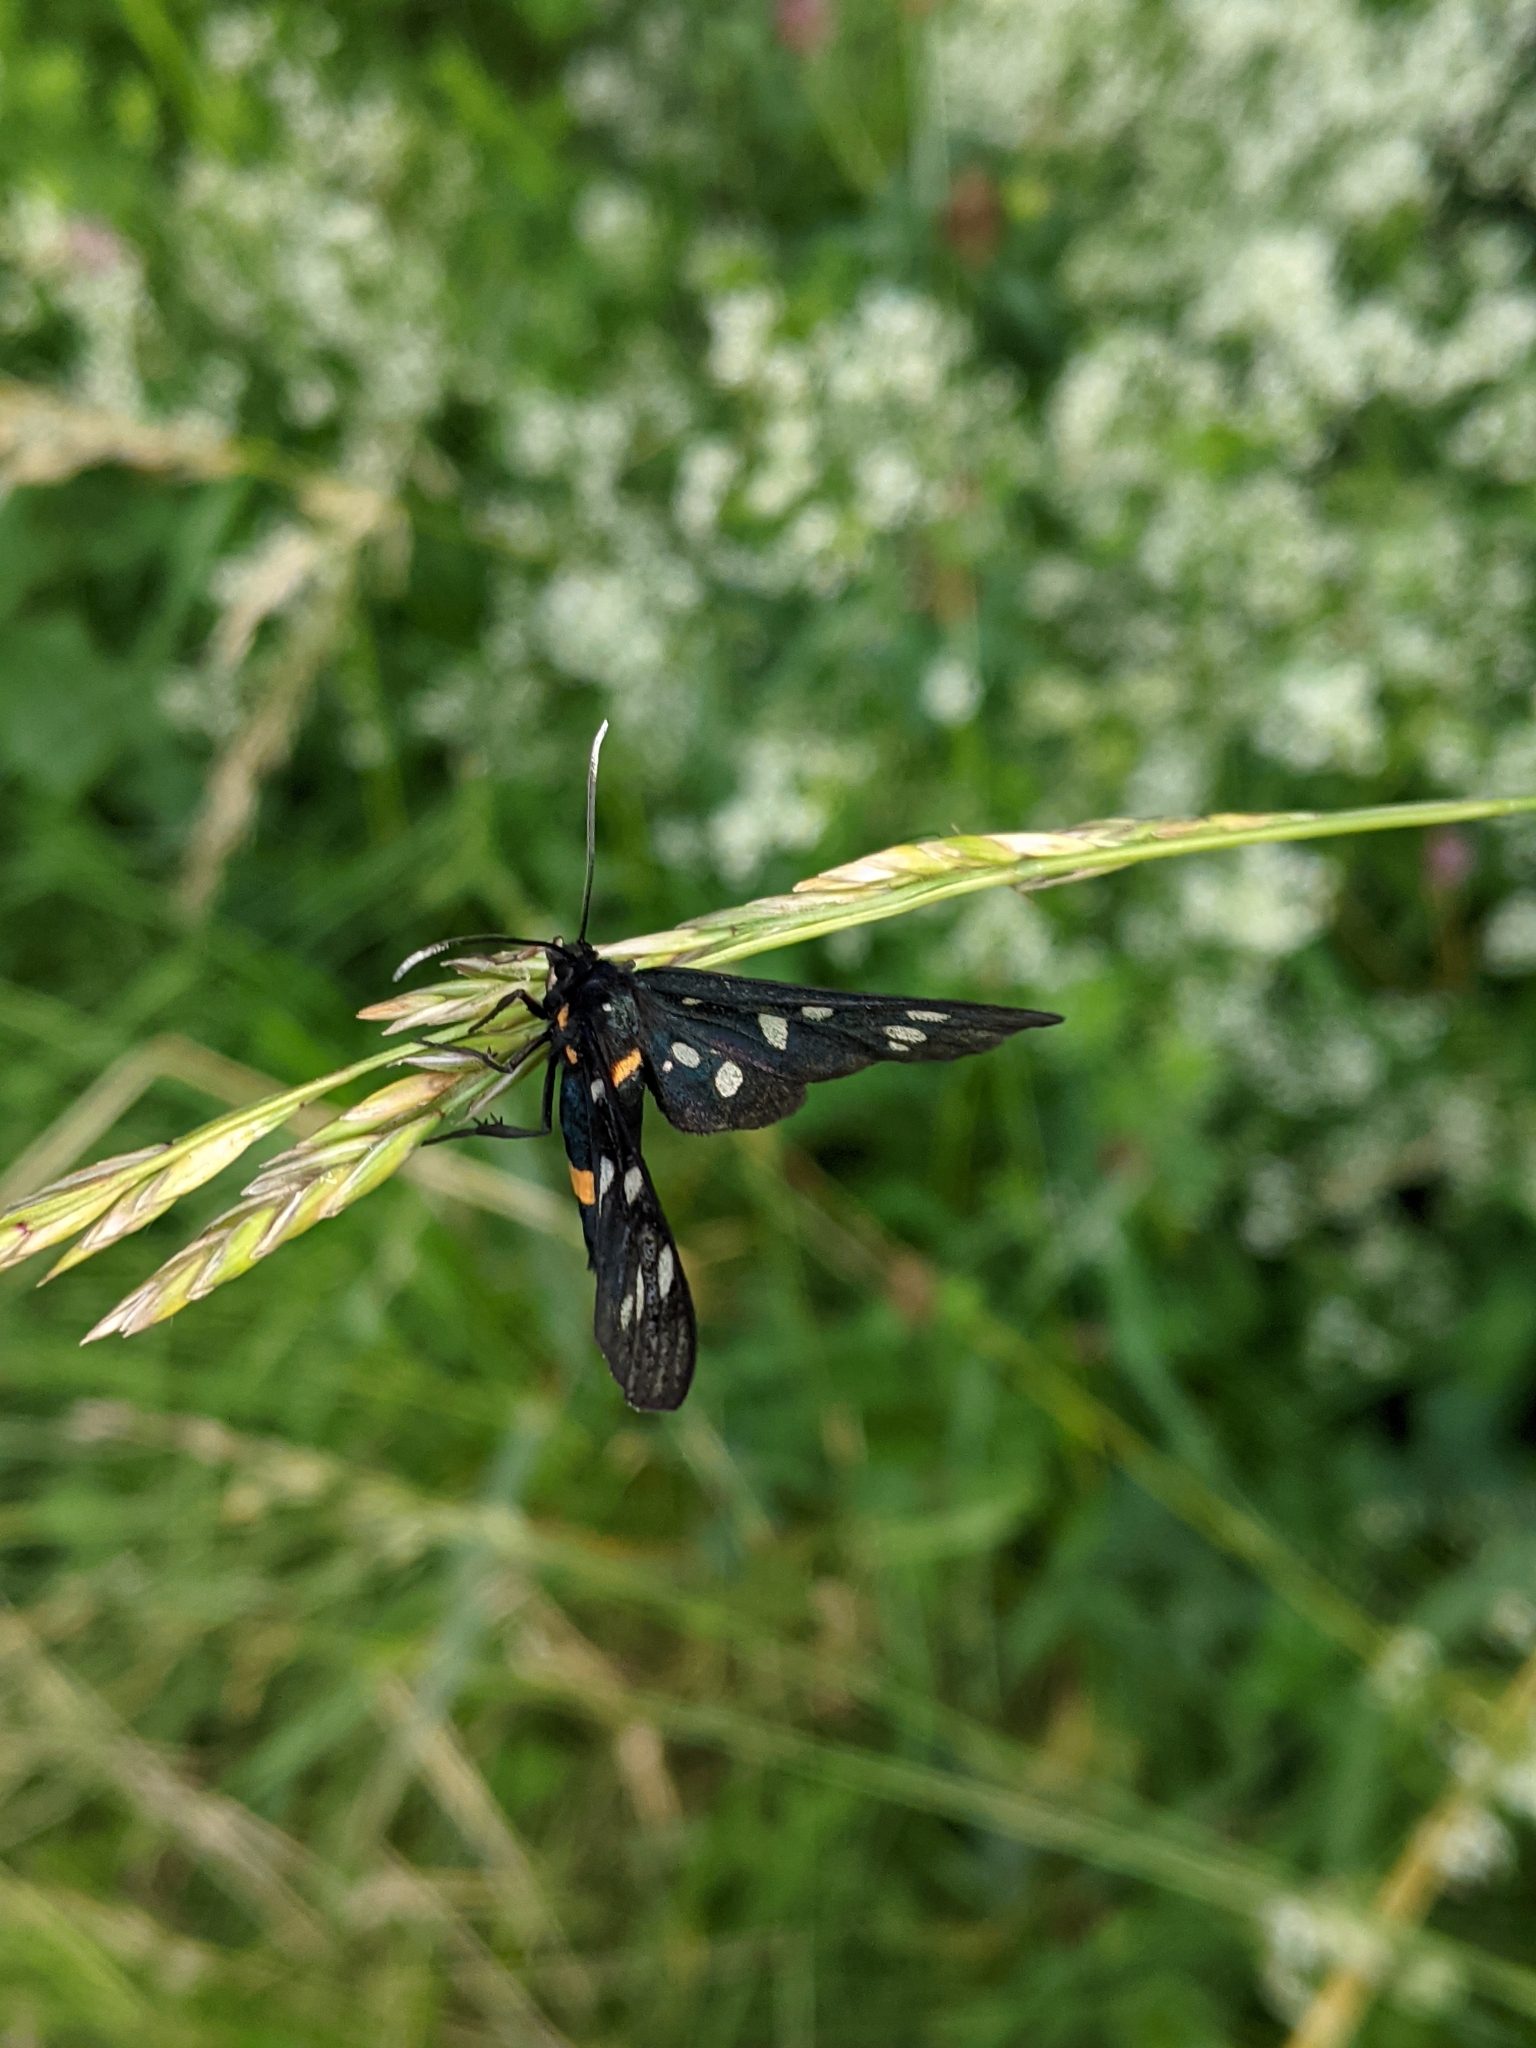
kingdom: Animalia
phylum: Arthropoda
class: Insecta
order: Lepidoptera
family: Erebidae
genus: Amata
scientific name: Amata phegea
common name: Nine-spotted
